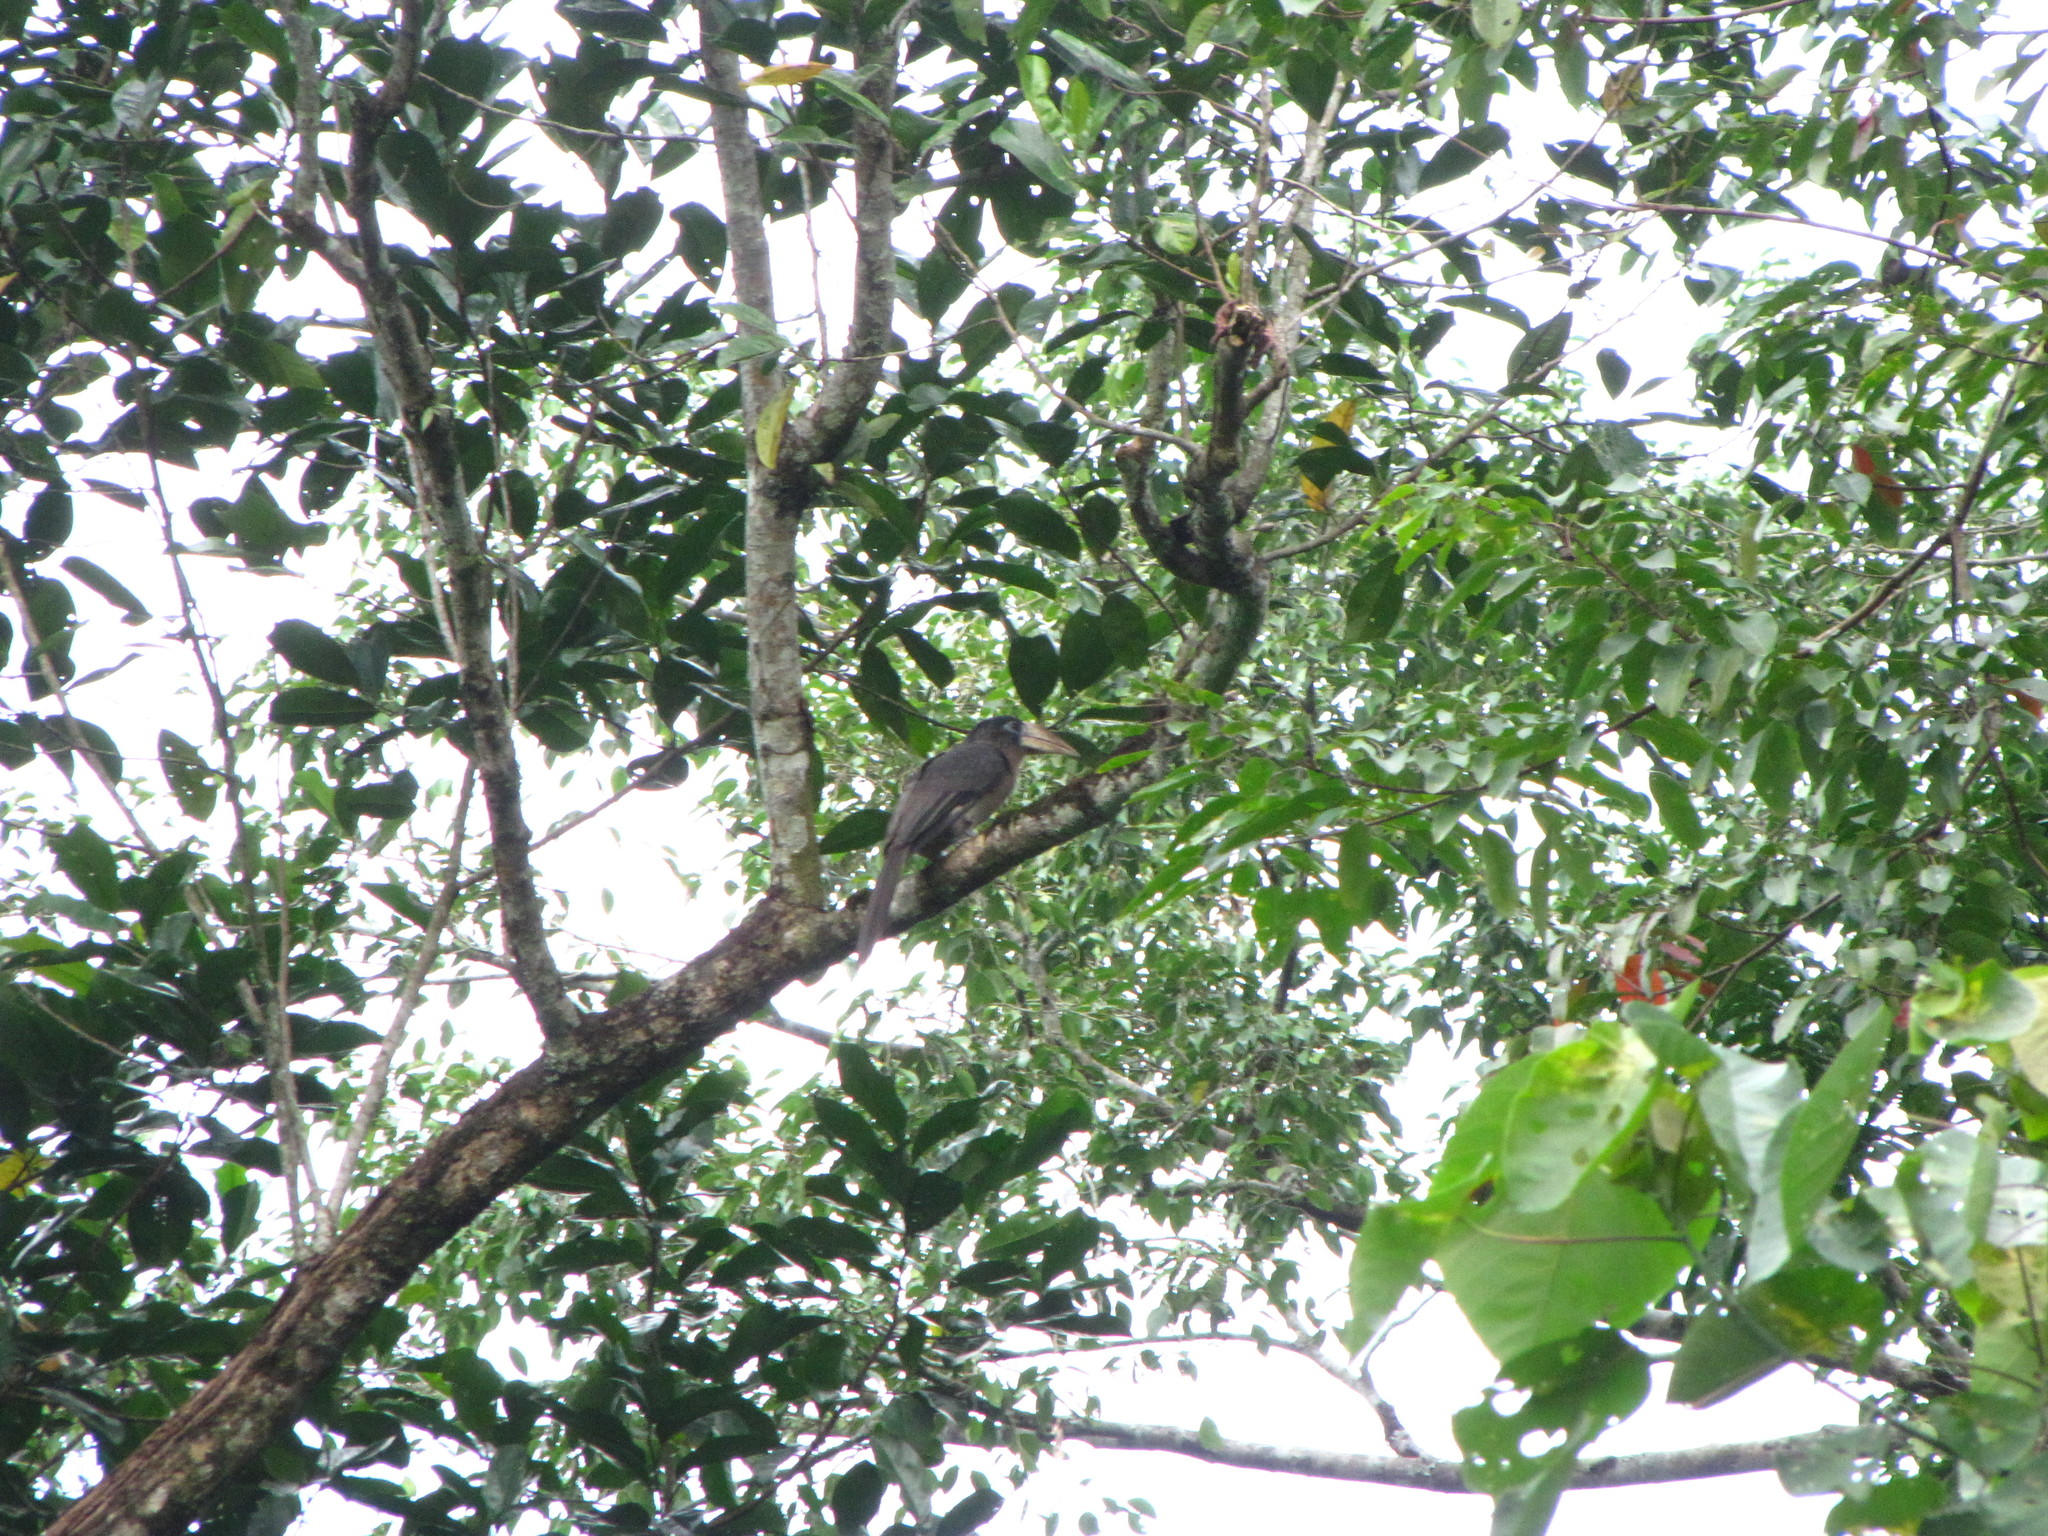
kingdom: Animalia
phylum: Chordata
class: Aves
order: Bucerotiformes
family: Bucerotidae
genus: Anorrhinus
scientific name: Anorrhinus austeni
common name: Austen's brown hornbill
